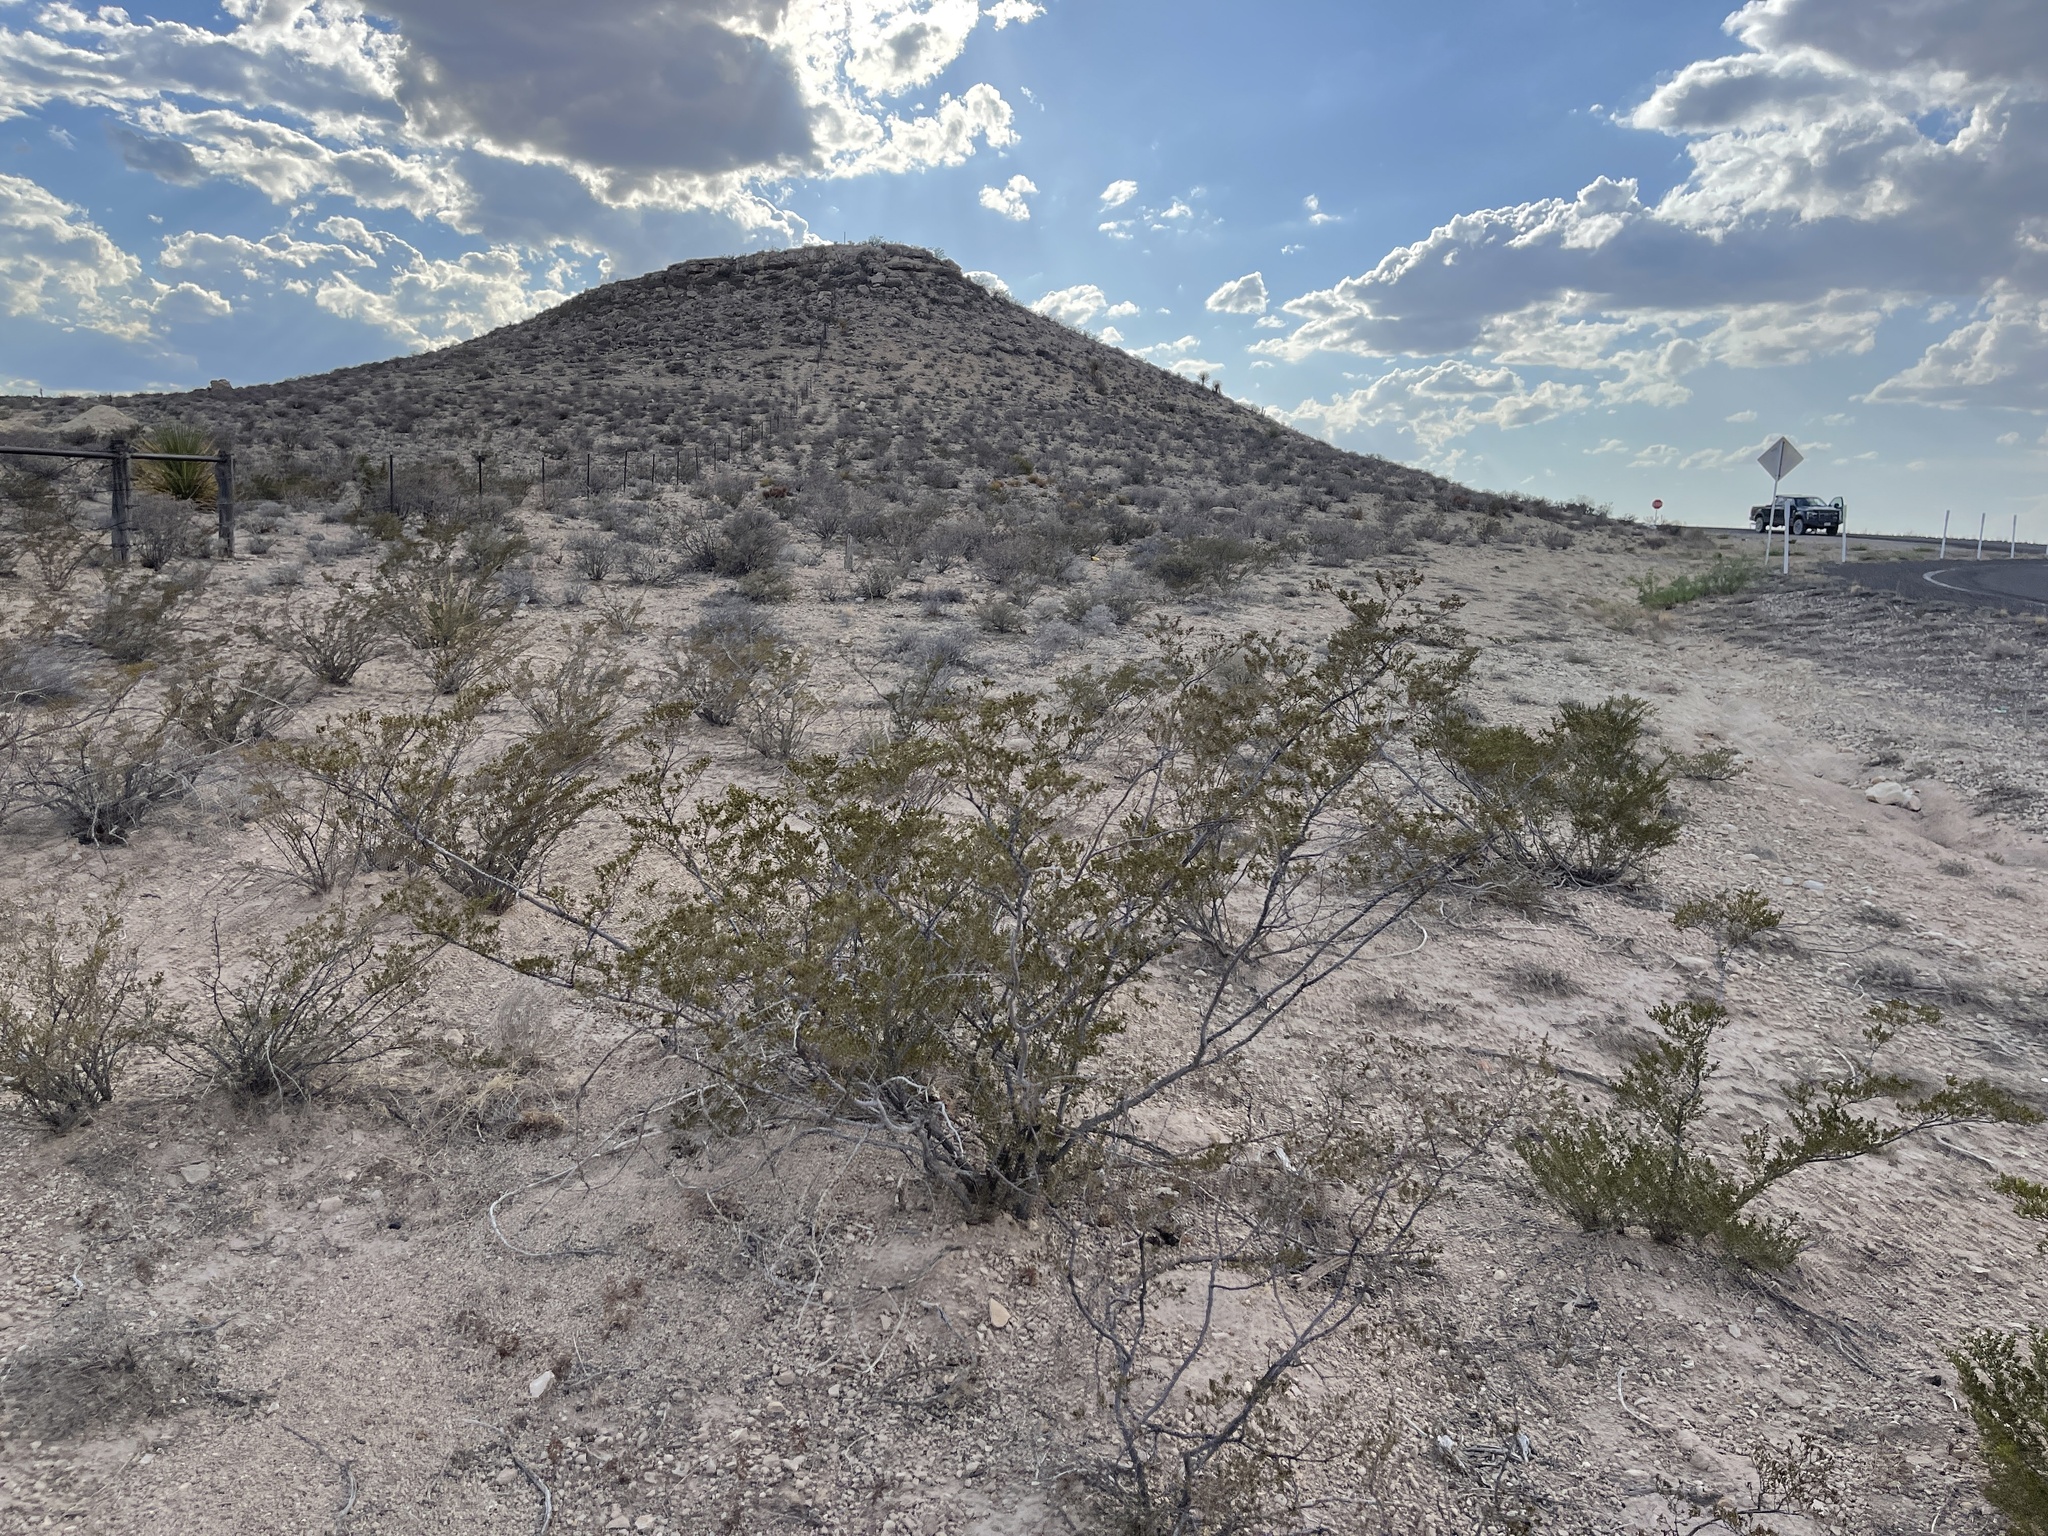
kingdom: Plantae
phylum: Tracheophyta
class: Magnoliopsida
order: Zygophyllales
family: Zygophyllaceae
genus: Larrea
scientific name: Larrea tridentata
